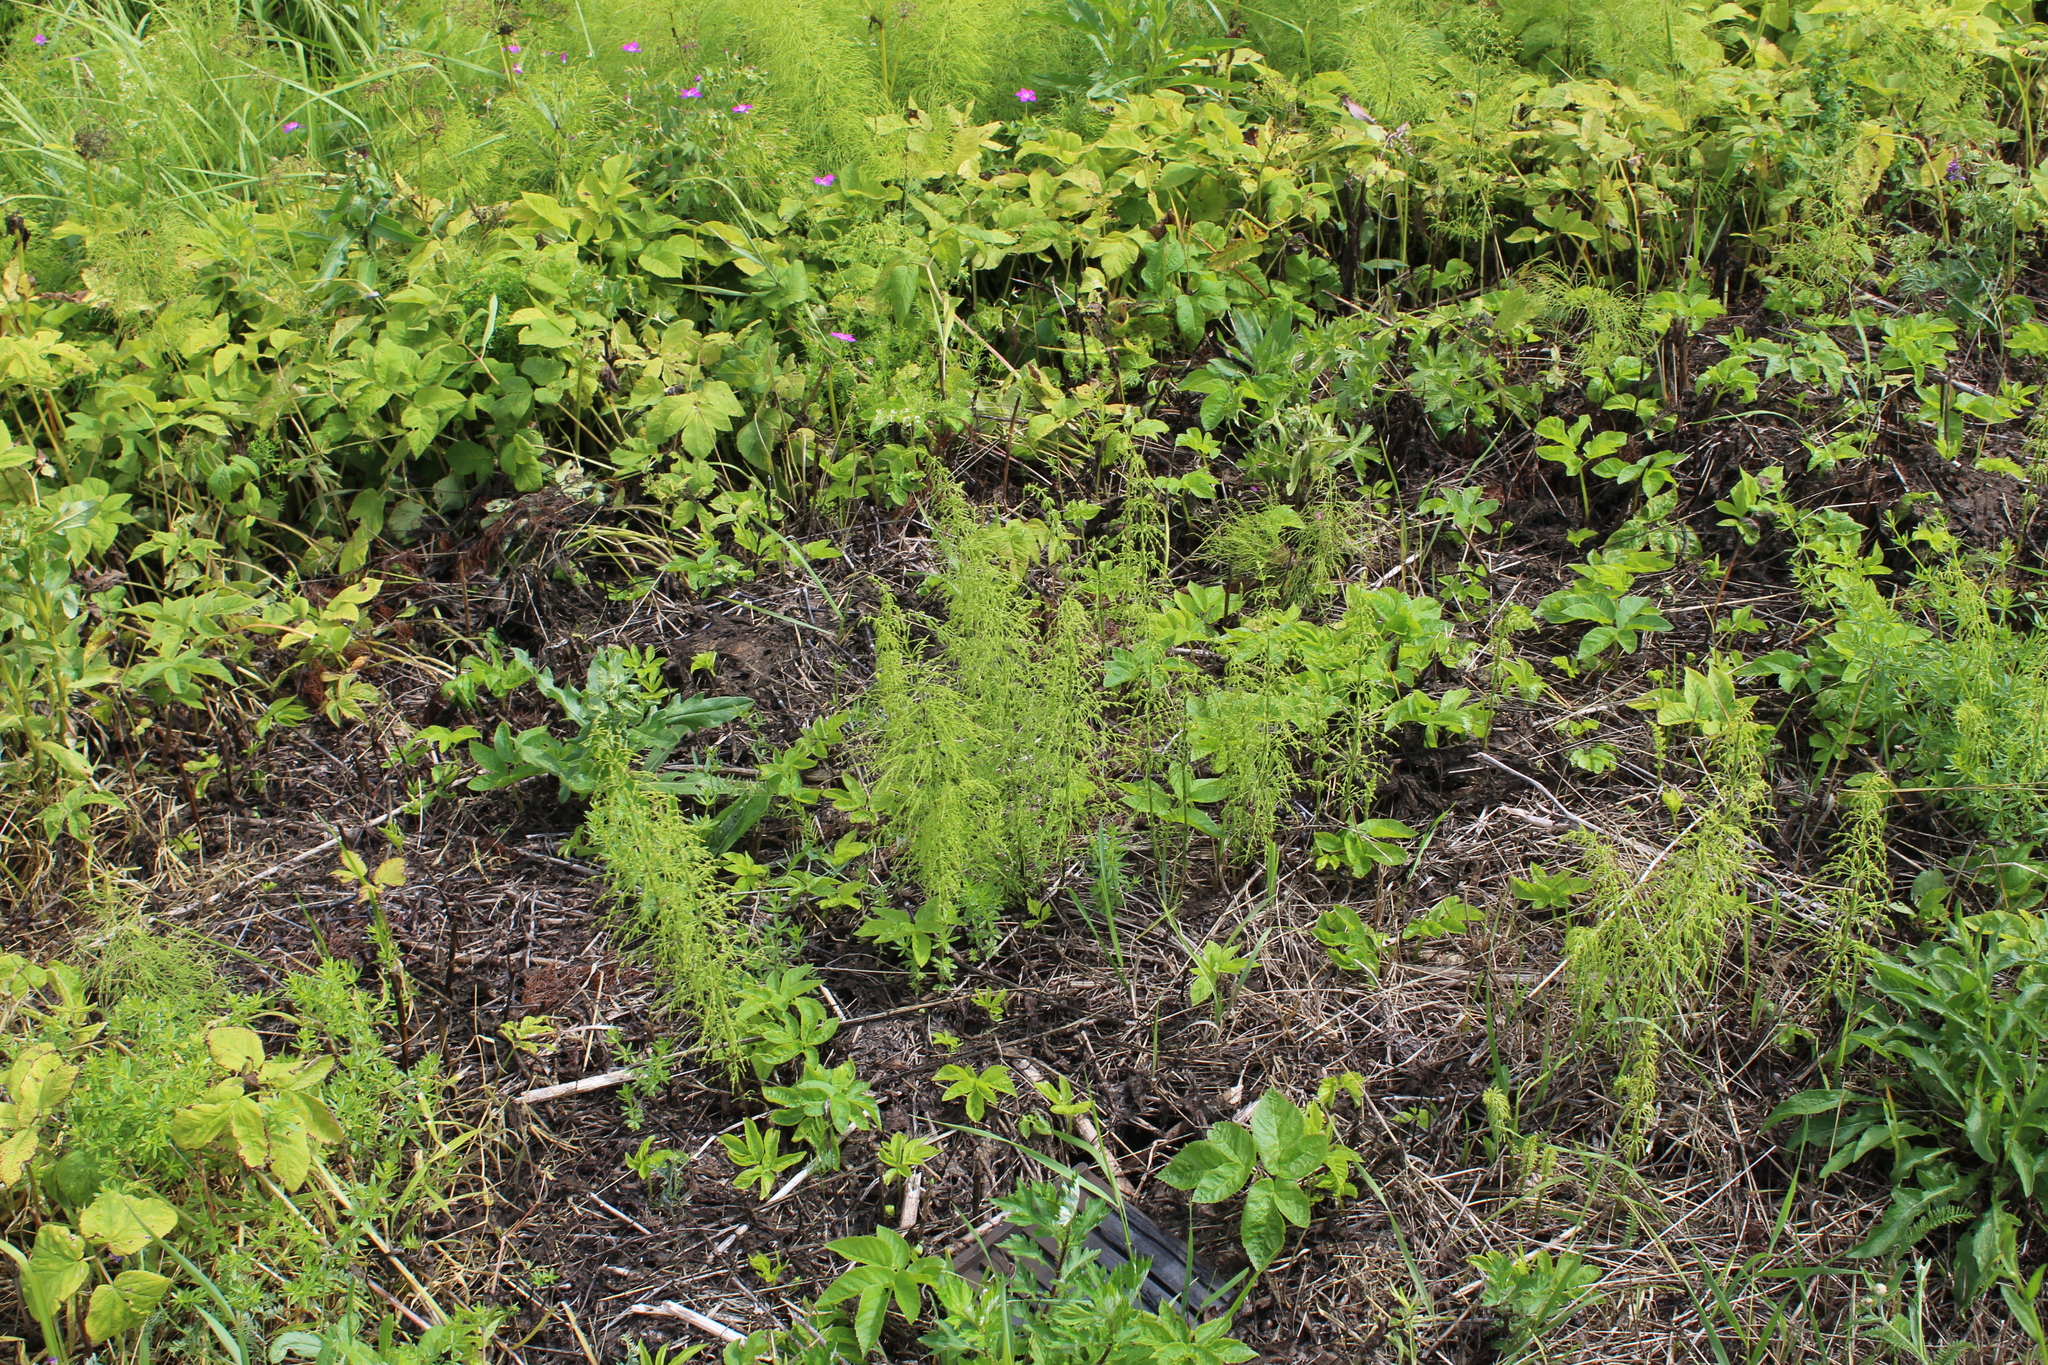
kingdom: Plantae
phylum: Tracheophyta
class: Polypodiopsida
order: Equisetales
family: Equisetaceae
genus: Equisetum
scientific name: Equisetum sylvaticum
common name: Wood horsetail
